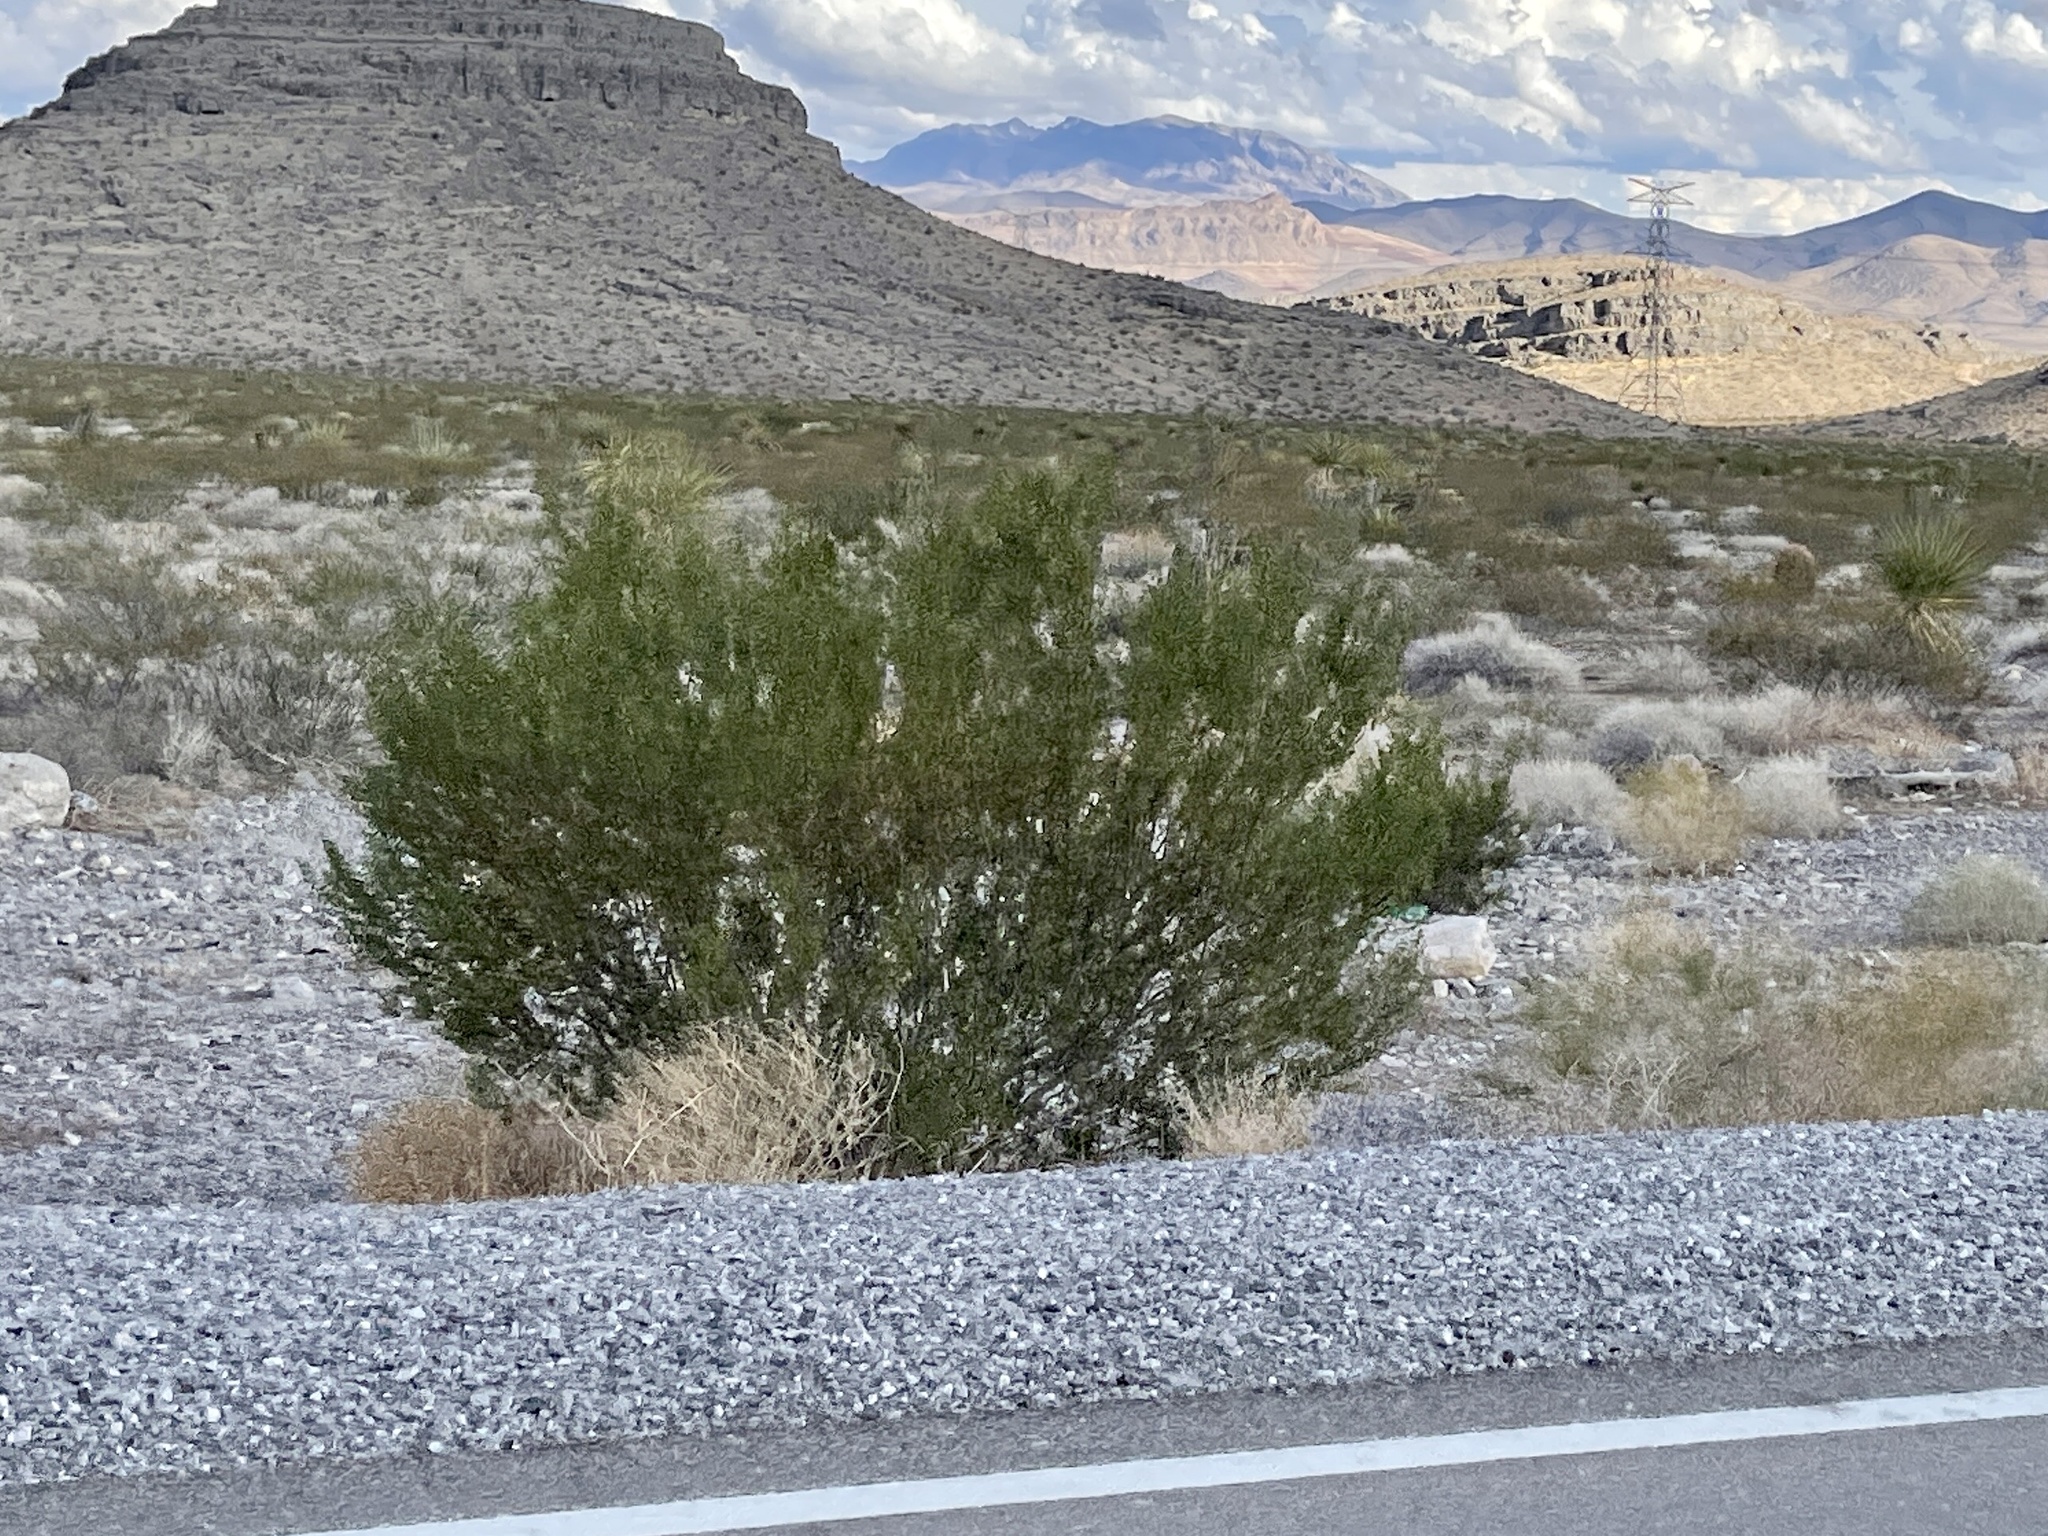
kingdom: Plantae
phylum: Tracheophyta
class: Magnoliopsida
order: Zygophyllales
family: Zygophyllaceae
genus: Larrea
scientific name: Larrea tridentata
